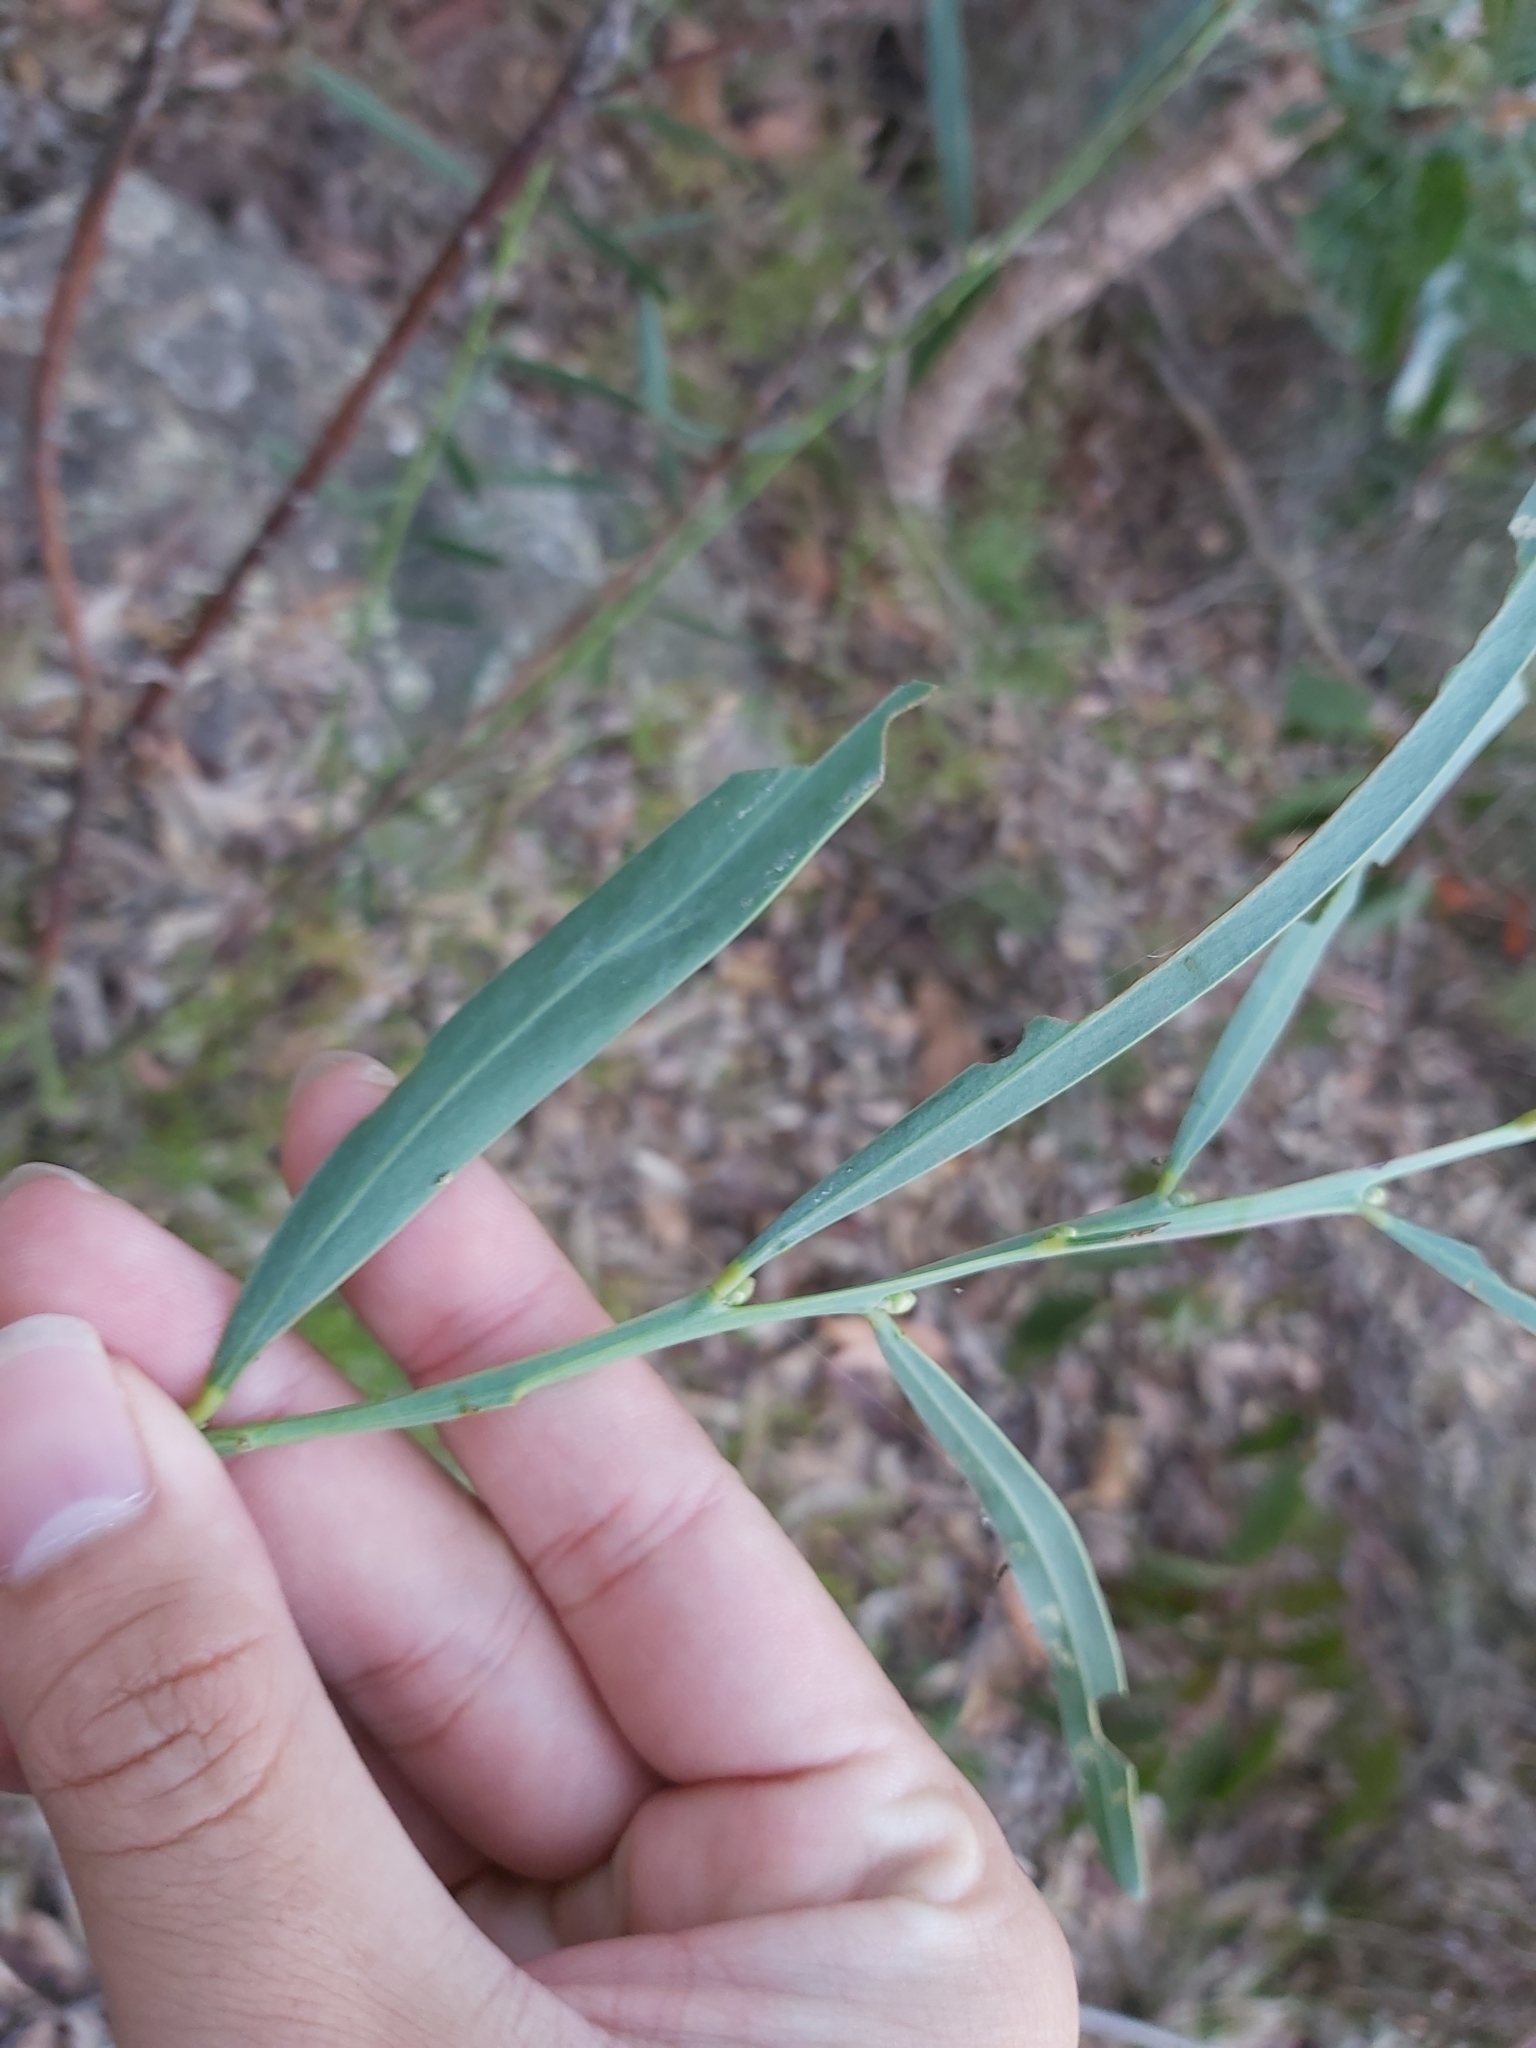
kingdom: Plantae
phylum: Tracheophyta
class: Magnoliopsida
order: Fabales
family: Fabaceae
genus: Acacia
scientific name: Acacia suaveolens
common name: Sweet acacia
